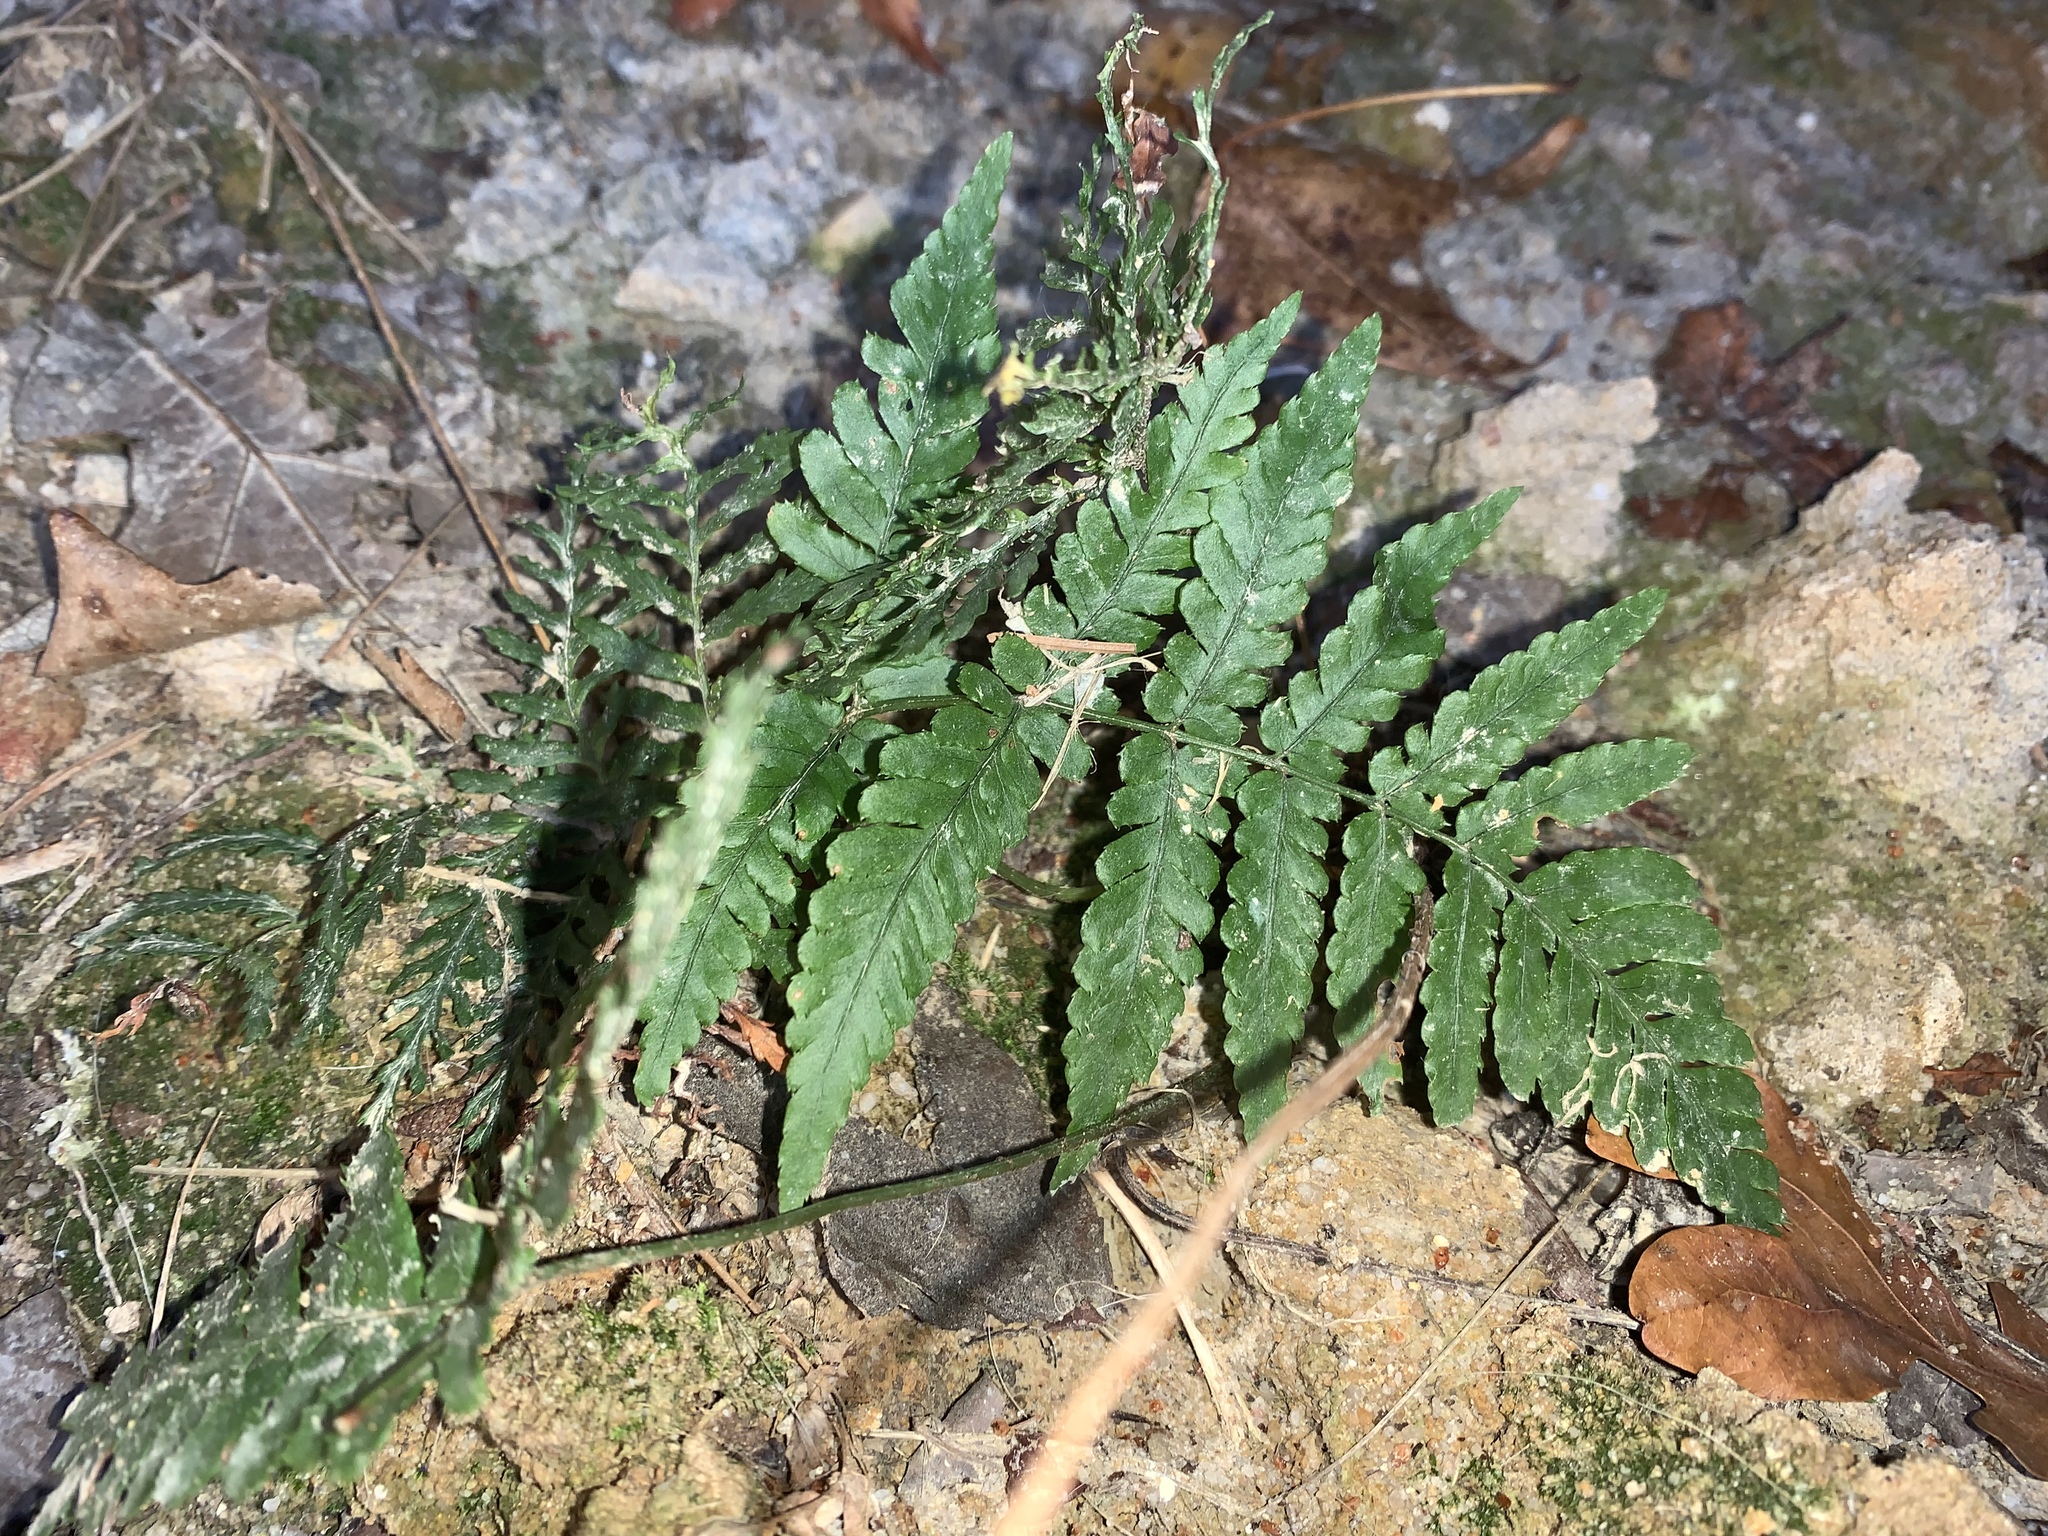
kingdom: Plantae
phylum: Tracheophyta
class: Polypodiopsida
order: Polypodiales
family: Dryopteridaceae
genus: Dryopteris
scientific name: Dryopteris erythrosora
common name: Autumn fern
